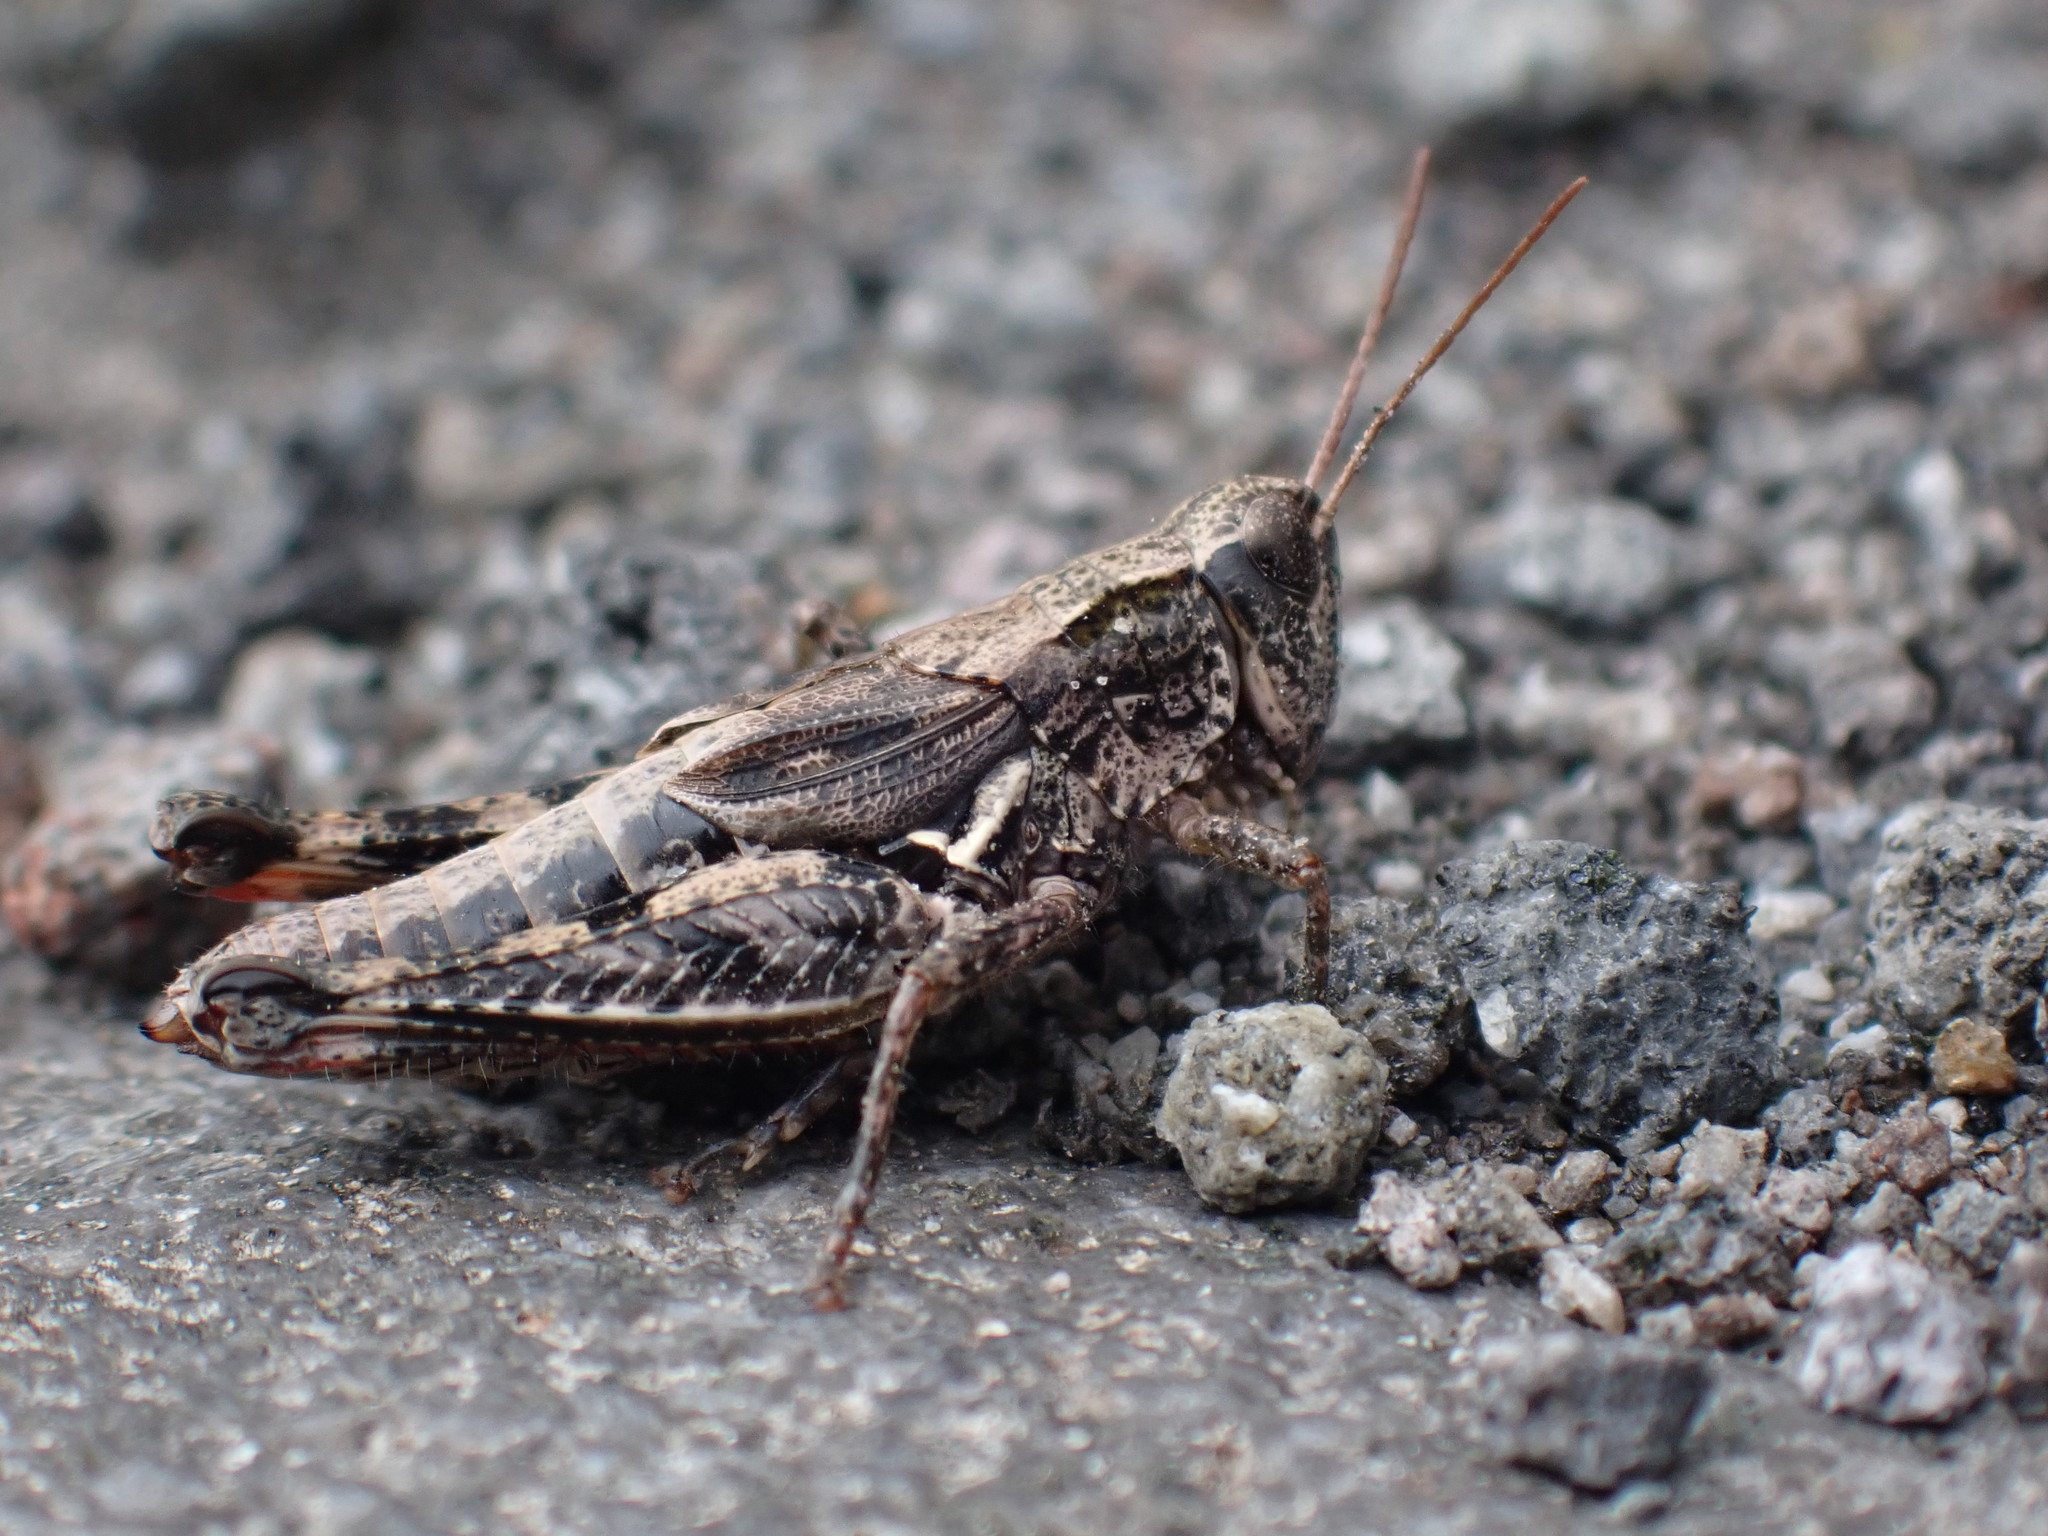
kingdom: Animalia
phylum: Arthropoda
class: Insecta
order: Orthoptera
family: Acrididae
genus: Phaulacridium
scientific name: Phaulacridium marginale
